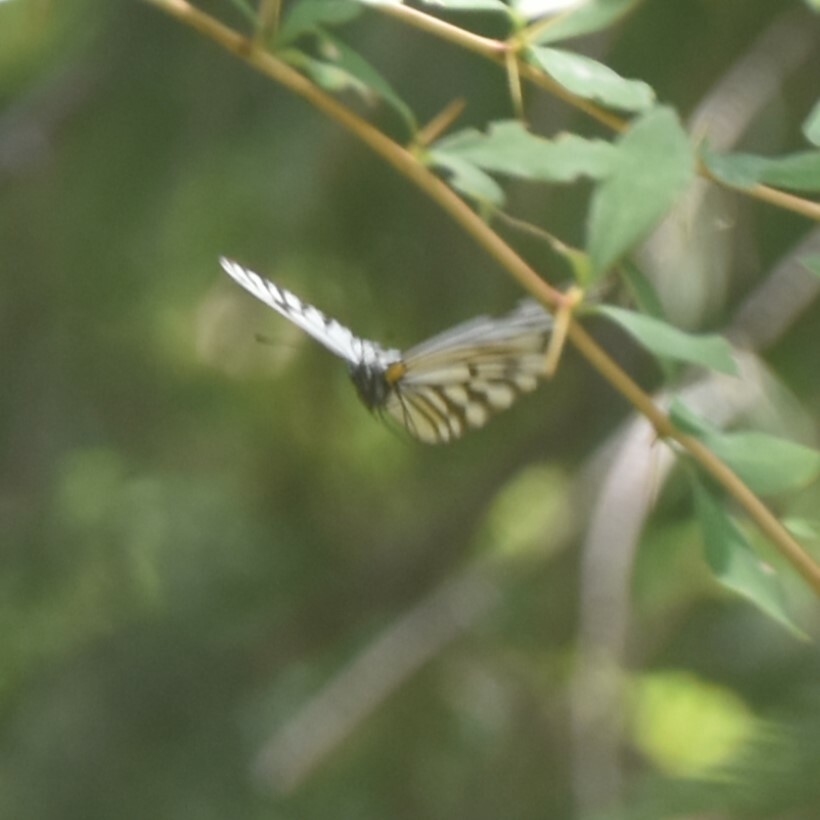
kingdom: Animalia
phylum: Arthropoda
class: Insecta
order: Lepidoptera
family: Pieridae
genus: Aporia
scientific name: Aporia agathon
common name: Great blackvein
